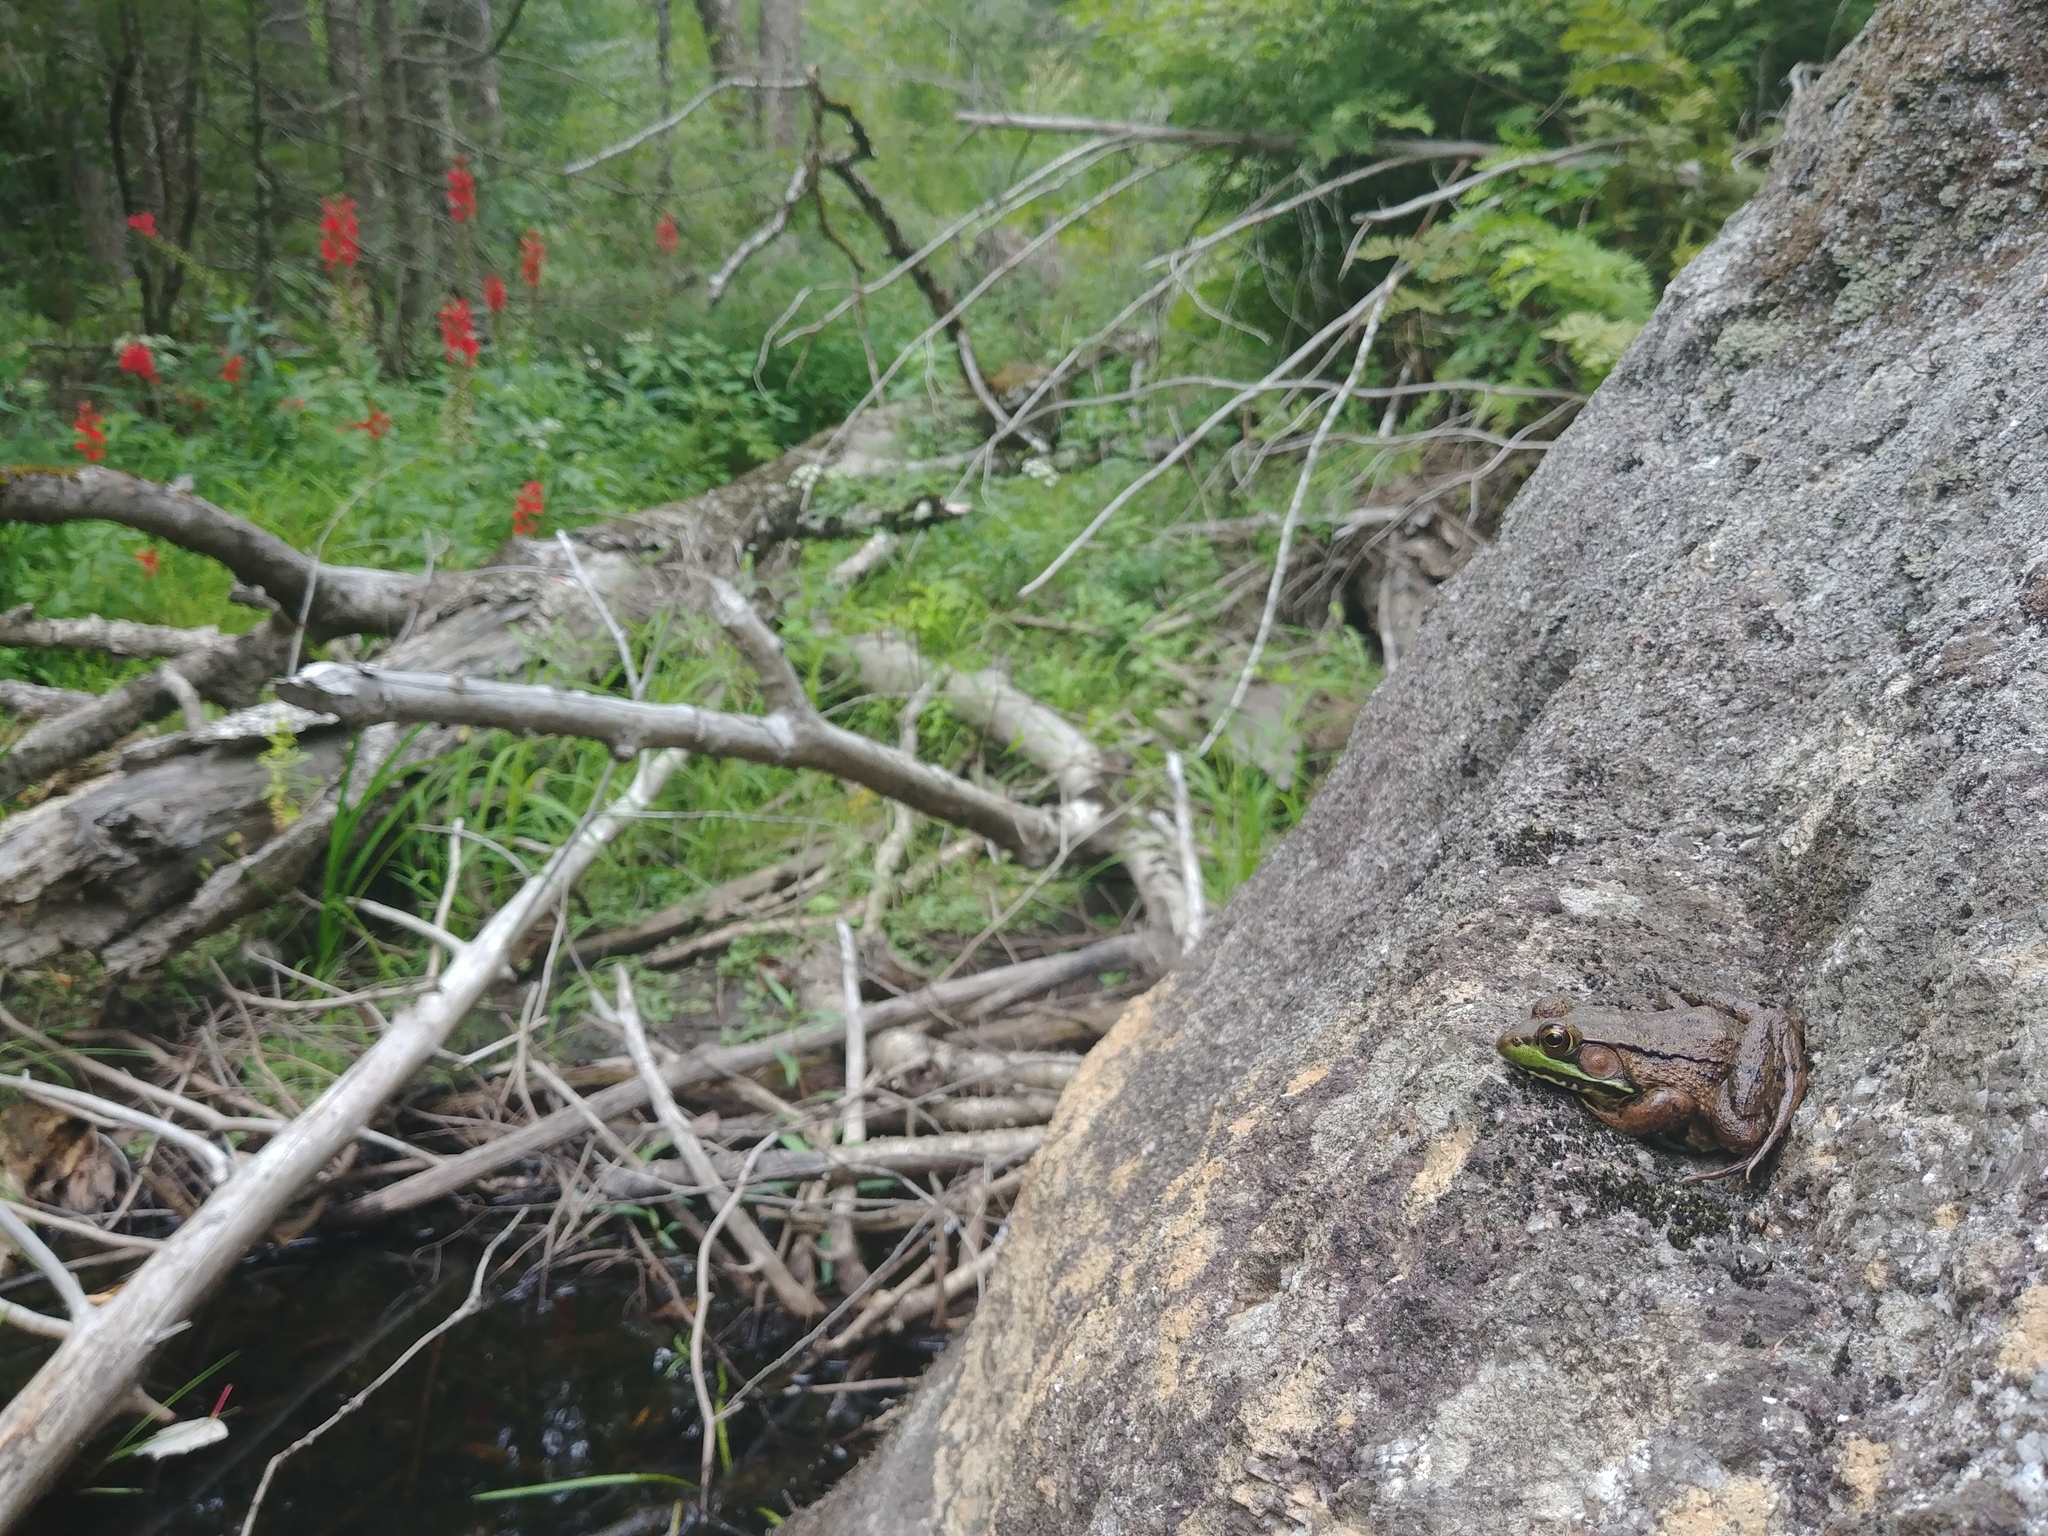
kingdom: Animalia
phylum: Chordata
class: Amphibia
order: Anura
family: Ranidae
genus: Lithobates
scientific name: Lithobates clamitans
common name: Green frog
